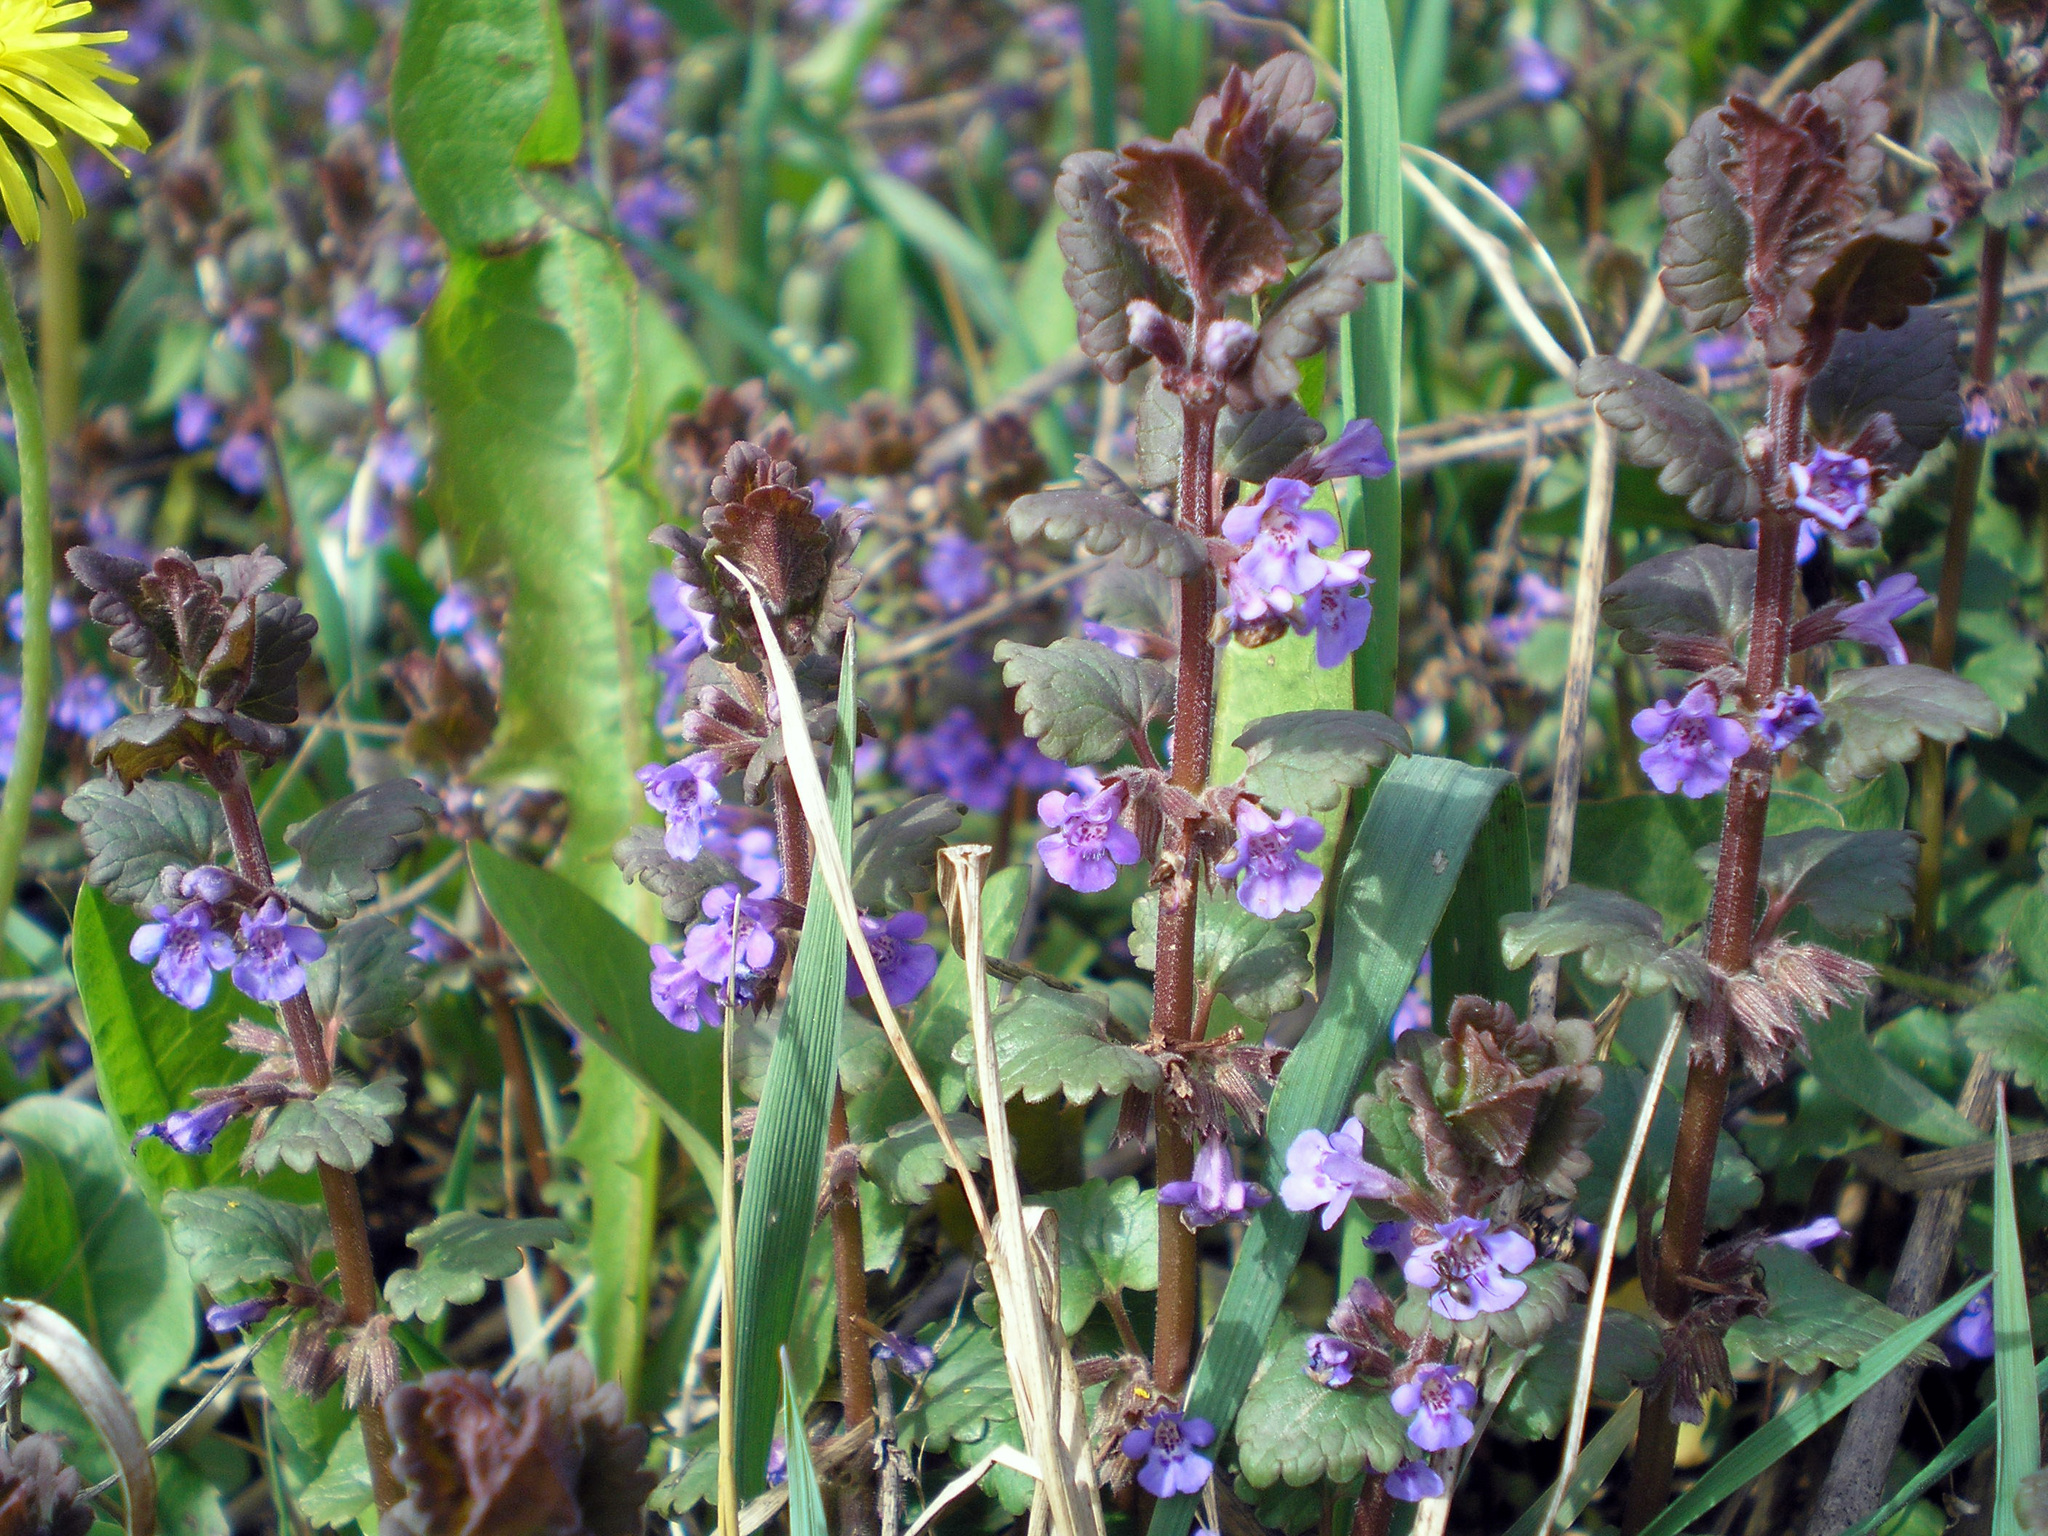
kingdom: Plantae
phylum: Tracheophyta
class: Magnoliopsida
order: Lamiales
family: Lamiaceae
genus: Glechoma
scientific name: Glechoma hederacea
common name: Ground ivy
